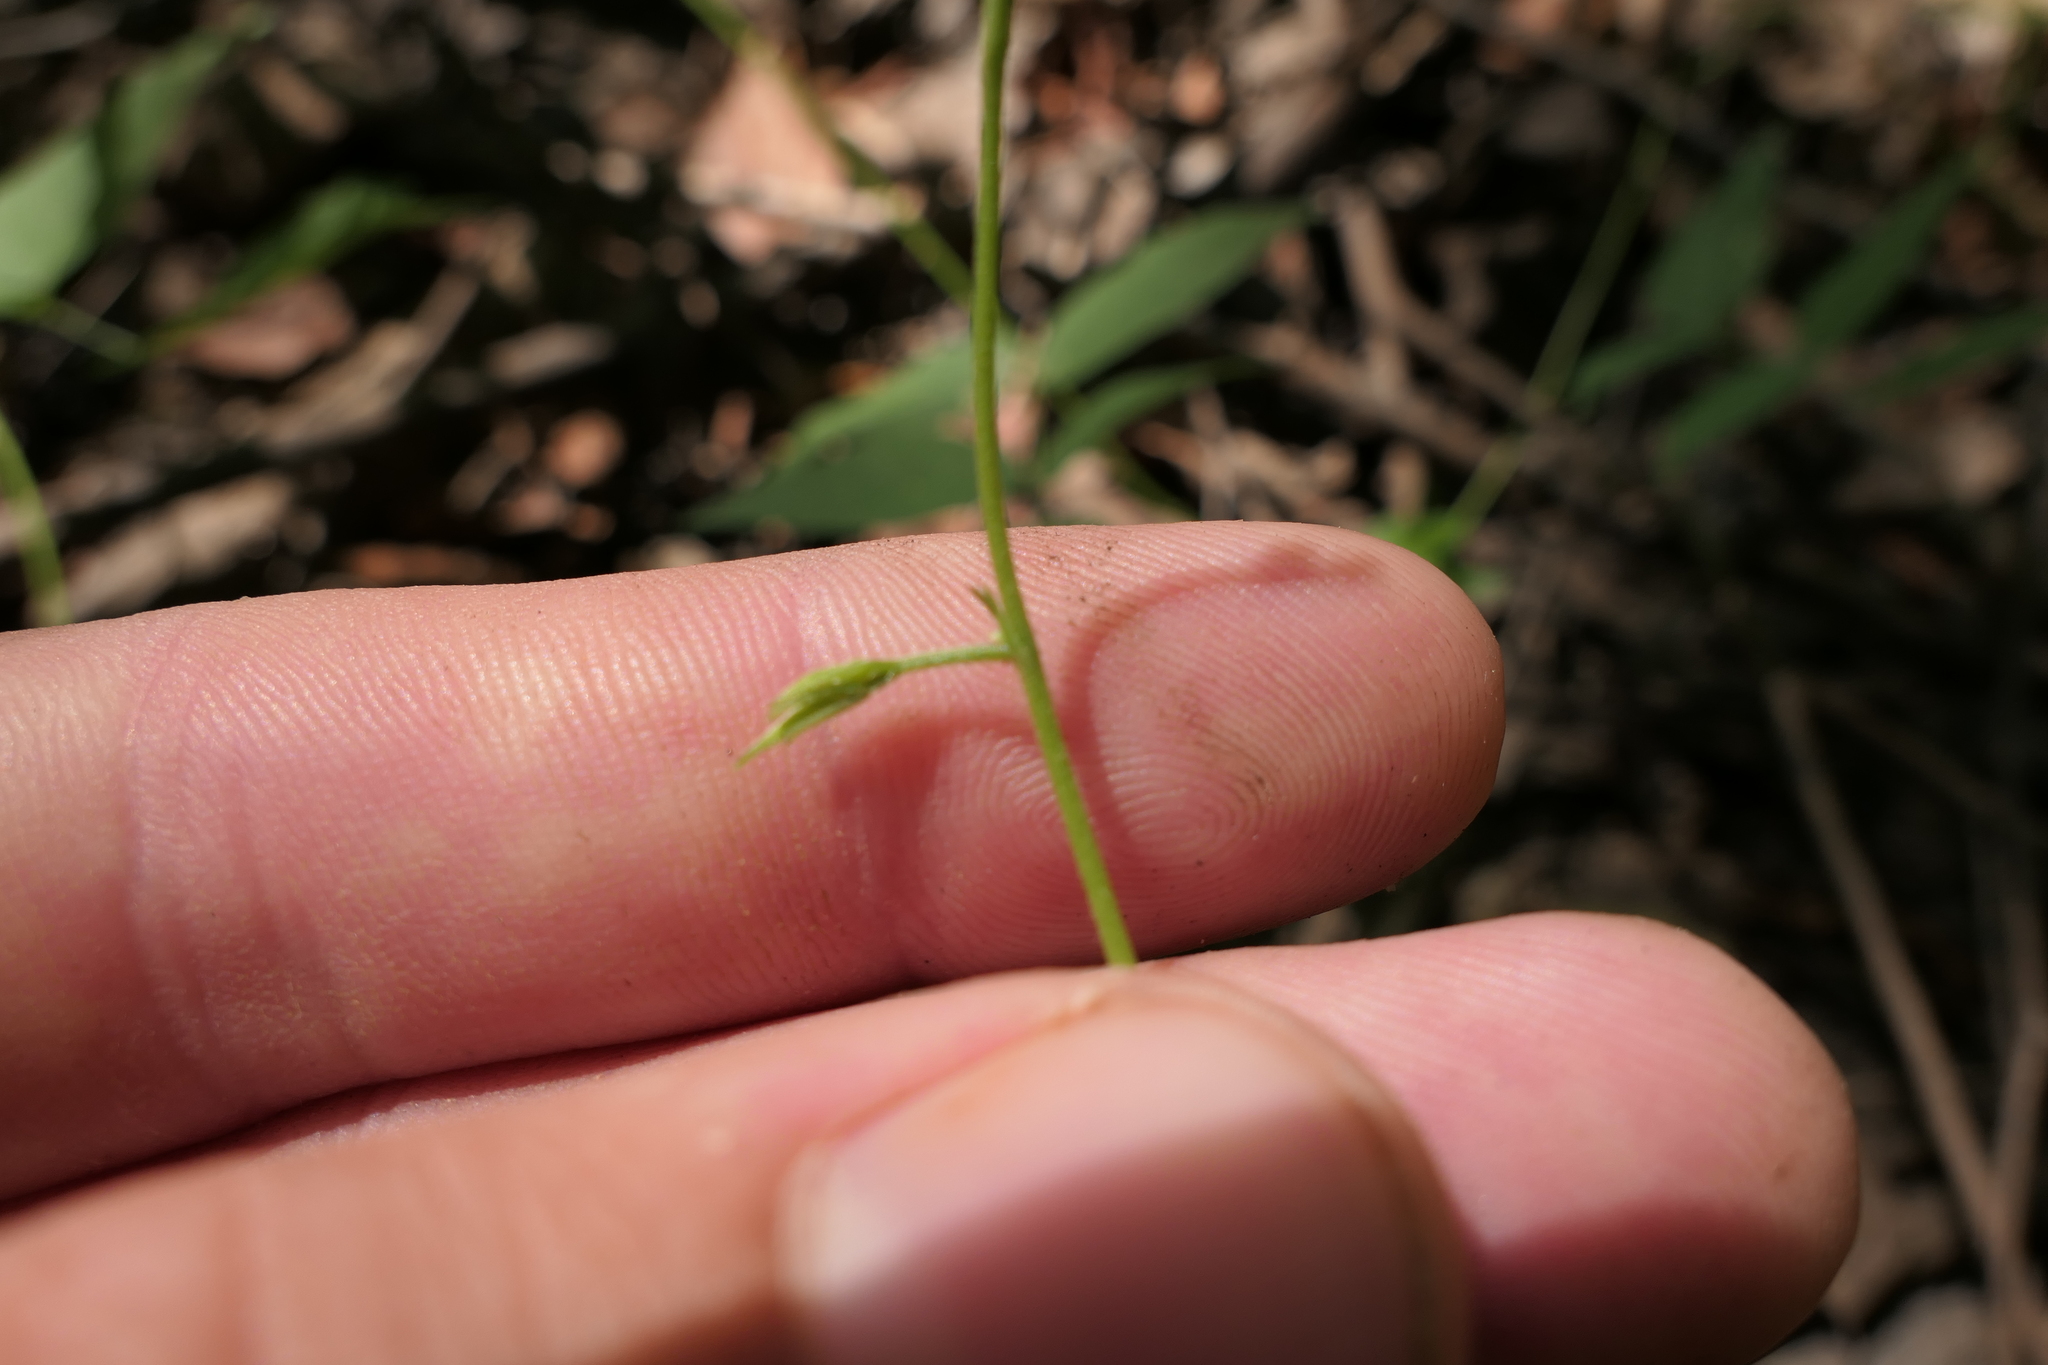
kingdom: Plantae
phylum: Tracheophyta
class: Magnoliopsida
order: Fabales
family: Fabaceae
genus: Apios
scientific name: Apios americana
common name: American potato-bean
